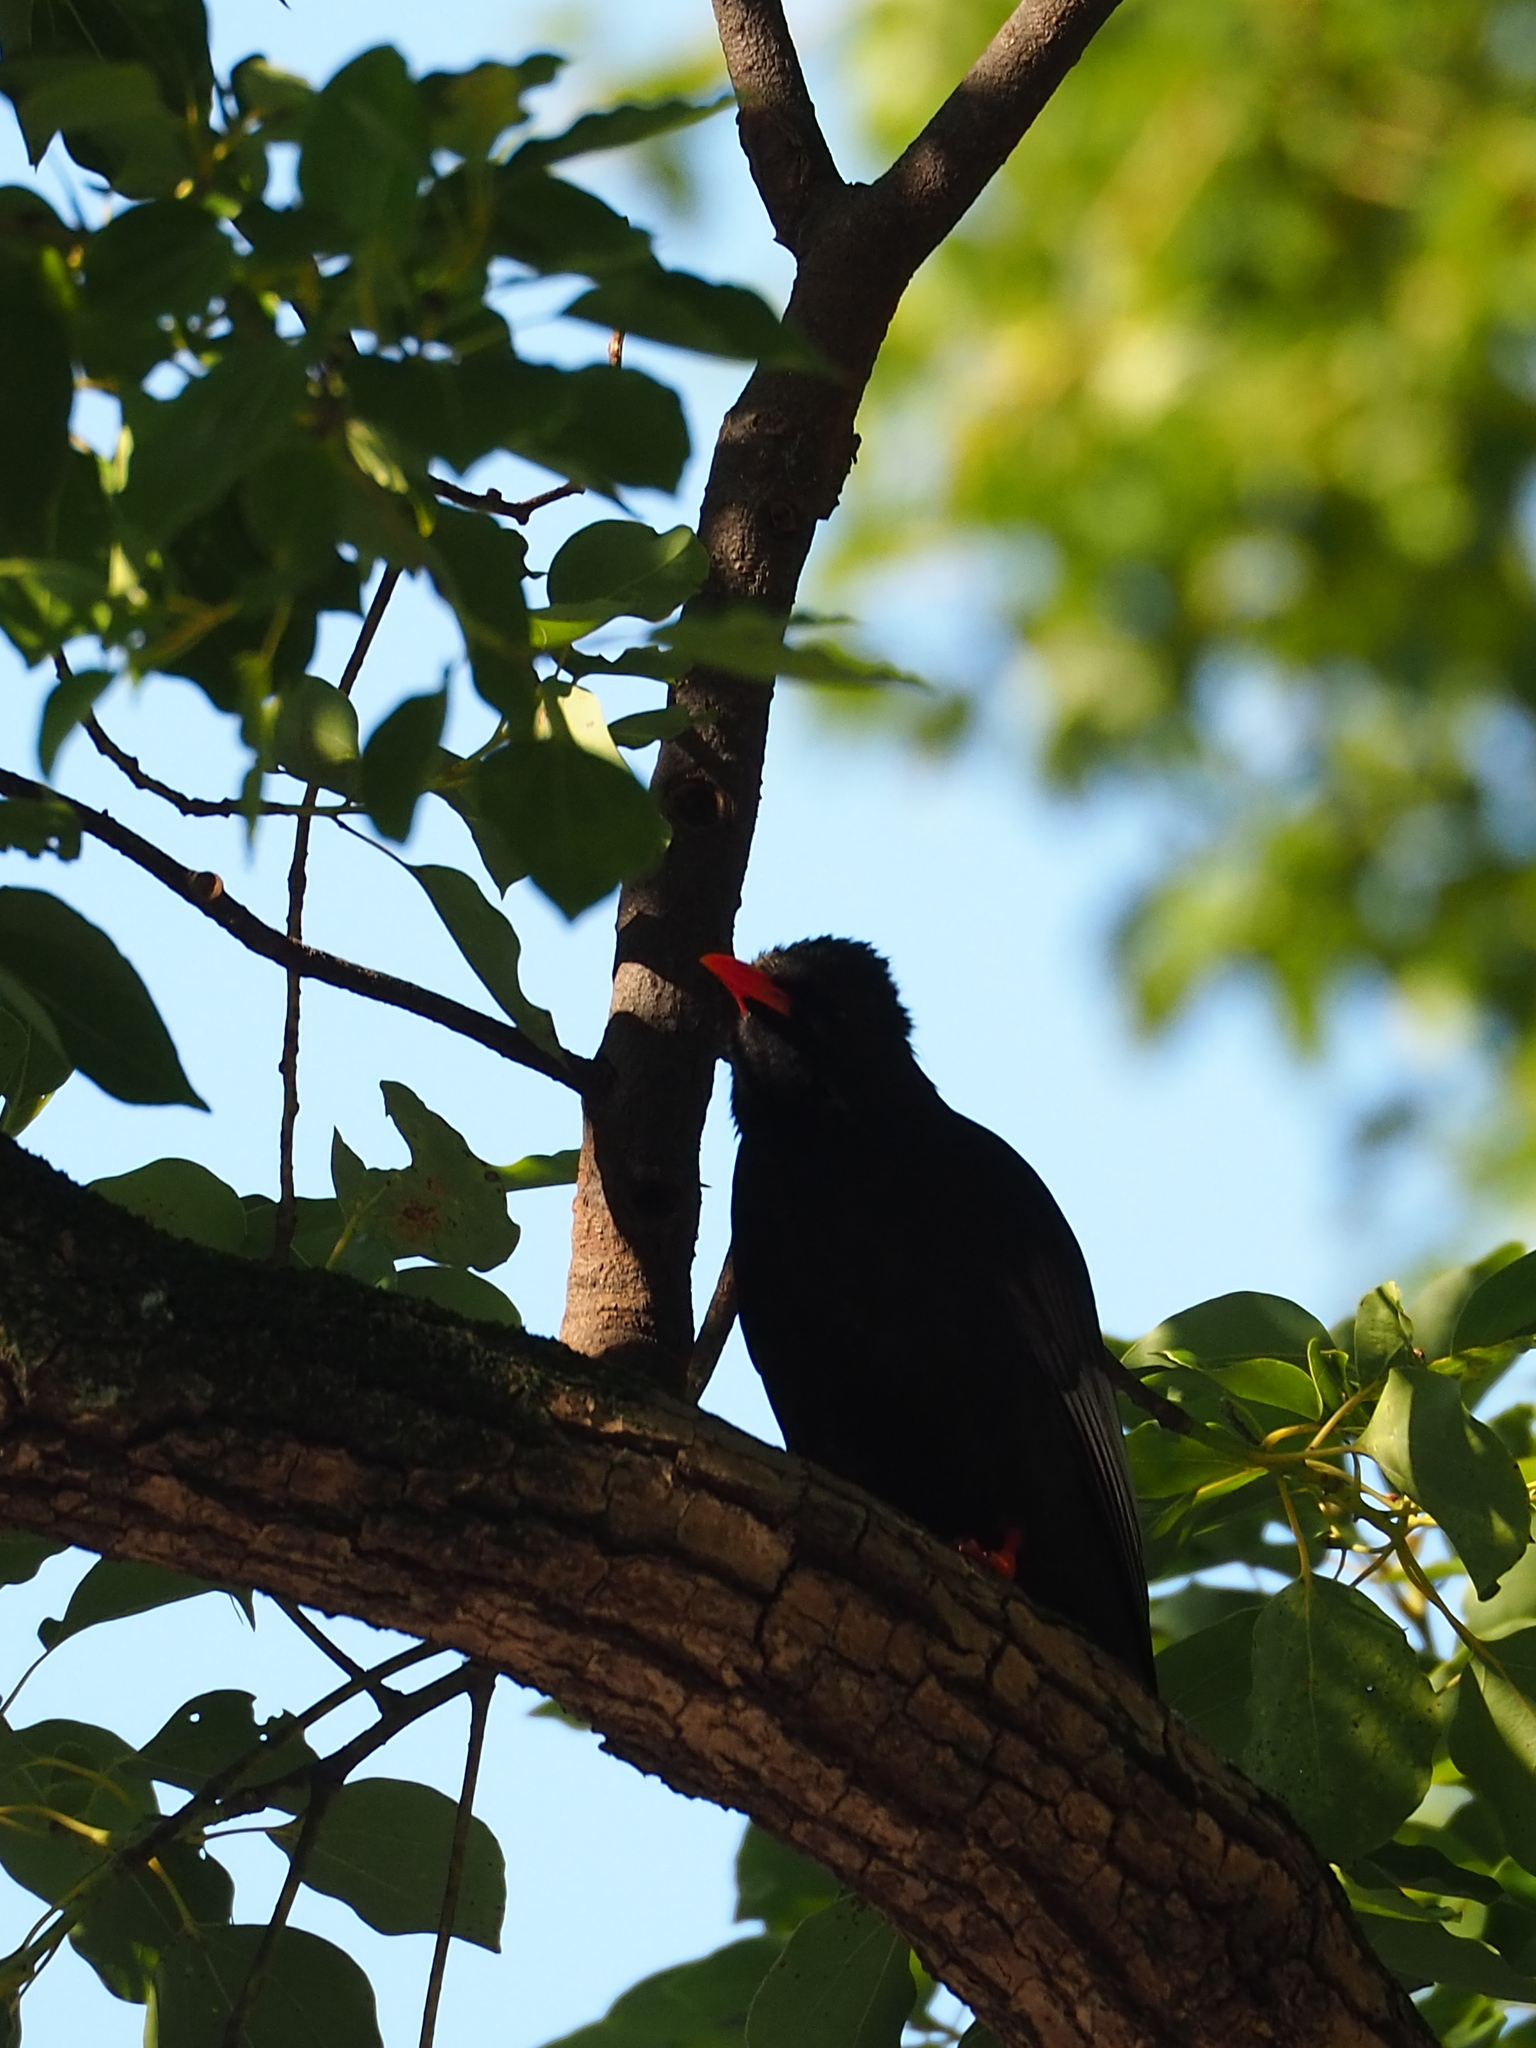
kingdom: Animalia
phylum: Chordata
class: Aves
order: Passeriformes
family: Pycnonotidae
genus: Hypsipetes
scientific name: Hypsipetes leucocephalus
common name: Black bulbul
